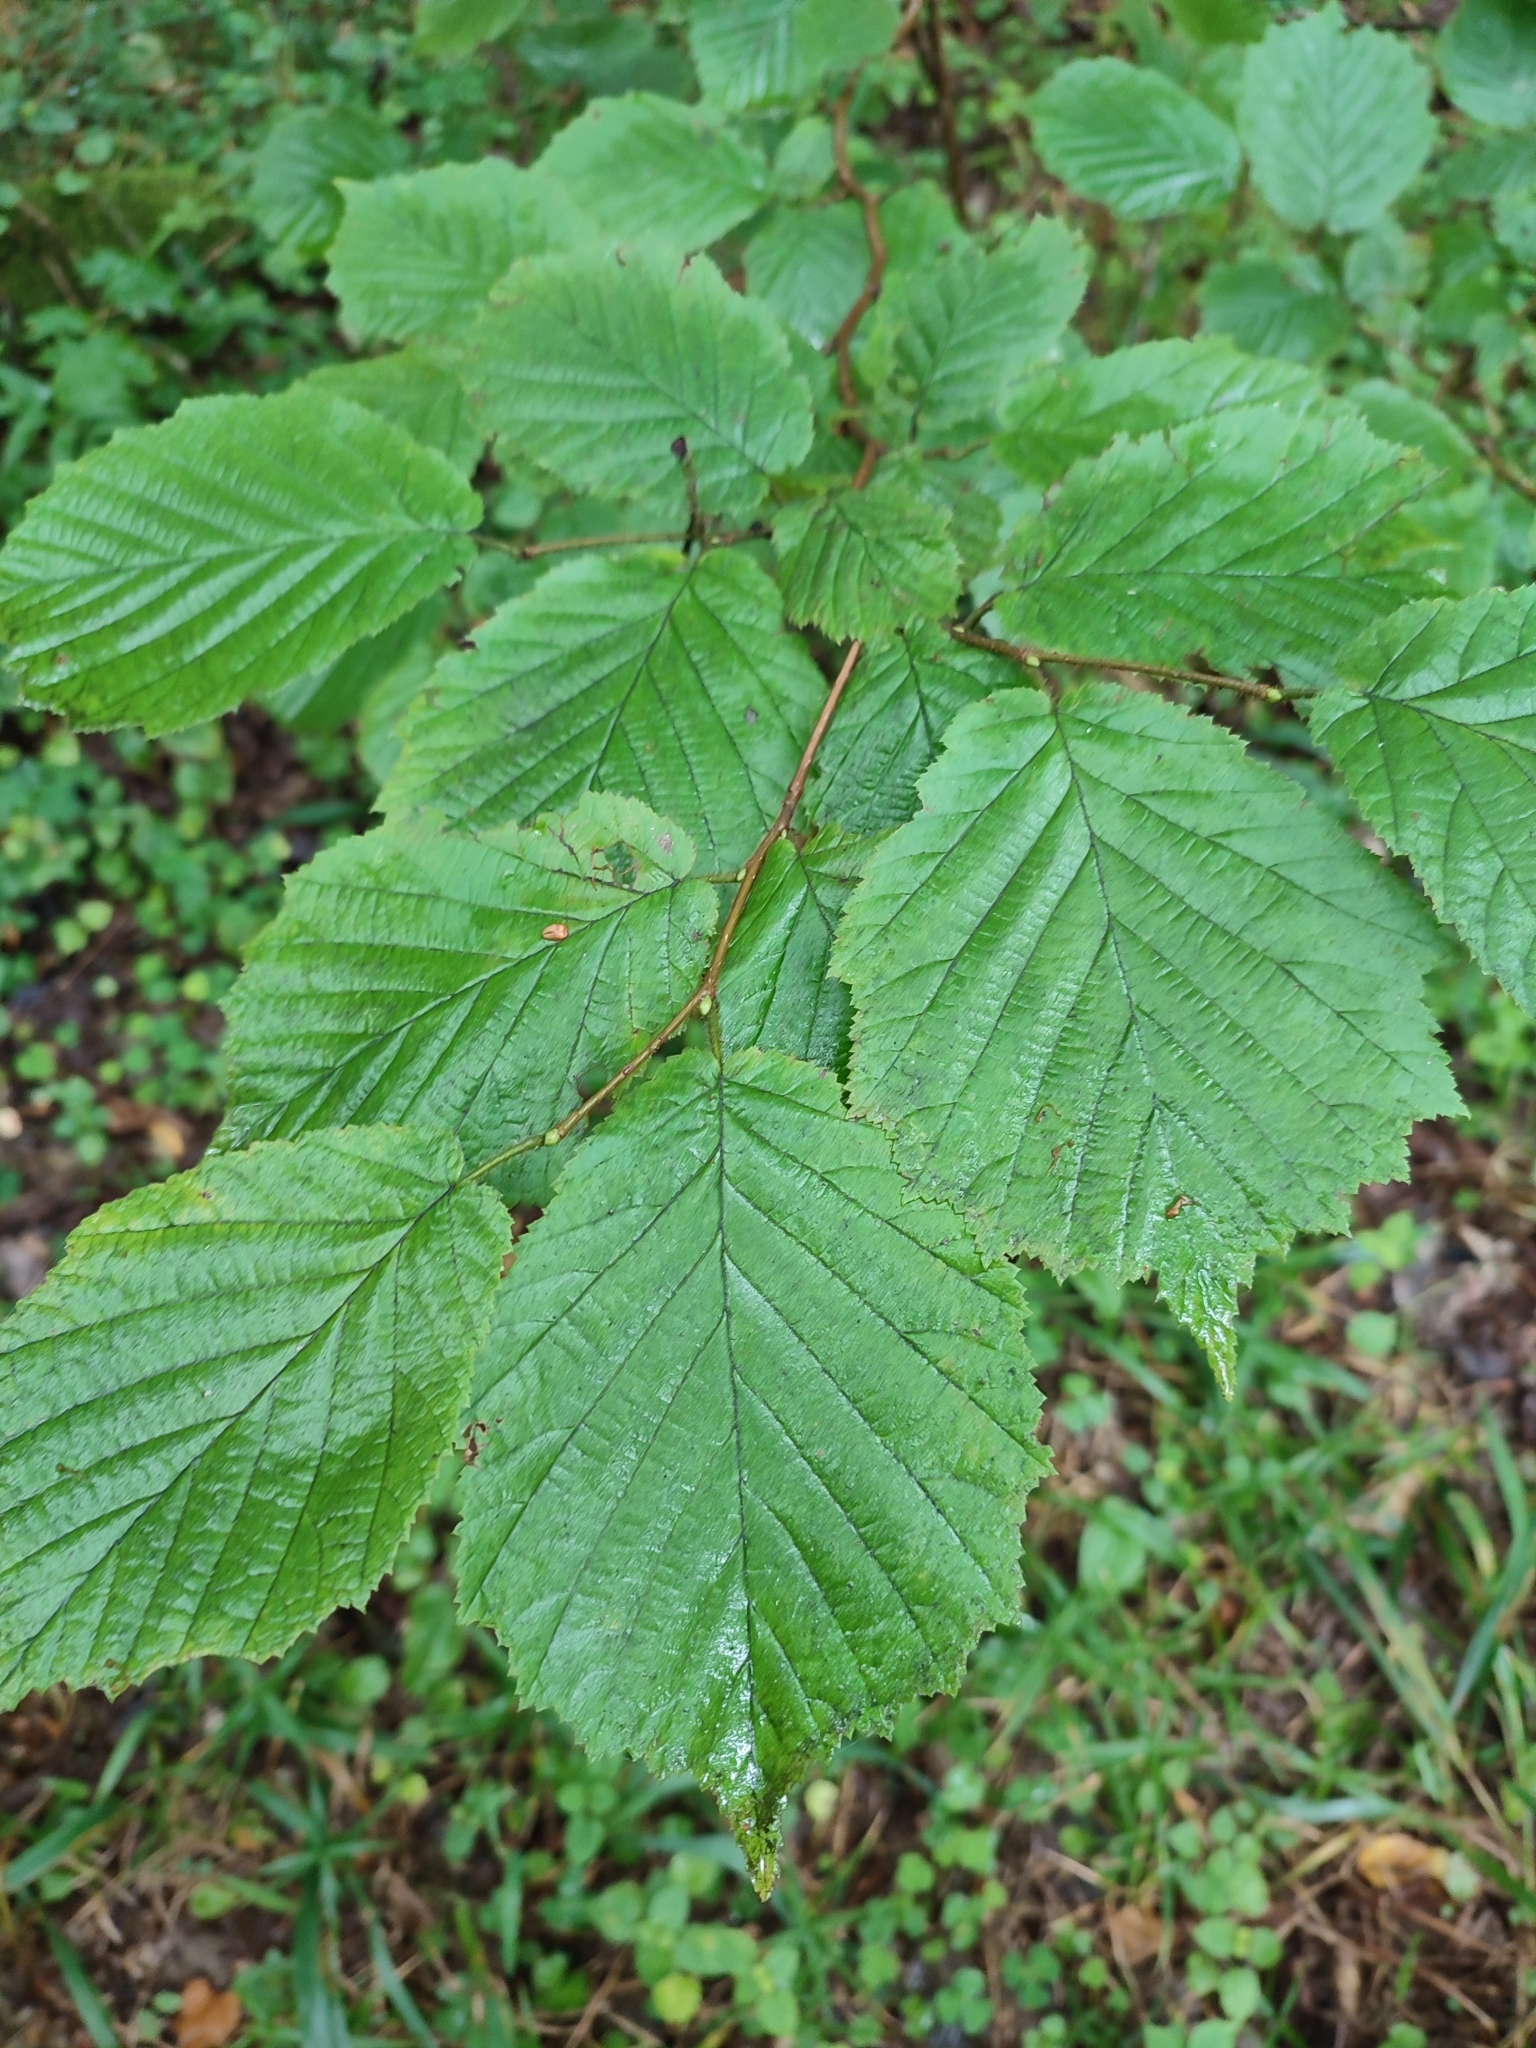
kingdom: Plantae
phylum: Tracheophyta
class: Magnoliopsida
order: Fagales
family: Betulaceae
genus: Corylus
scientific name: Corylus avellana
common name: European hazel
